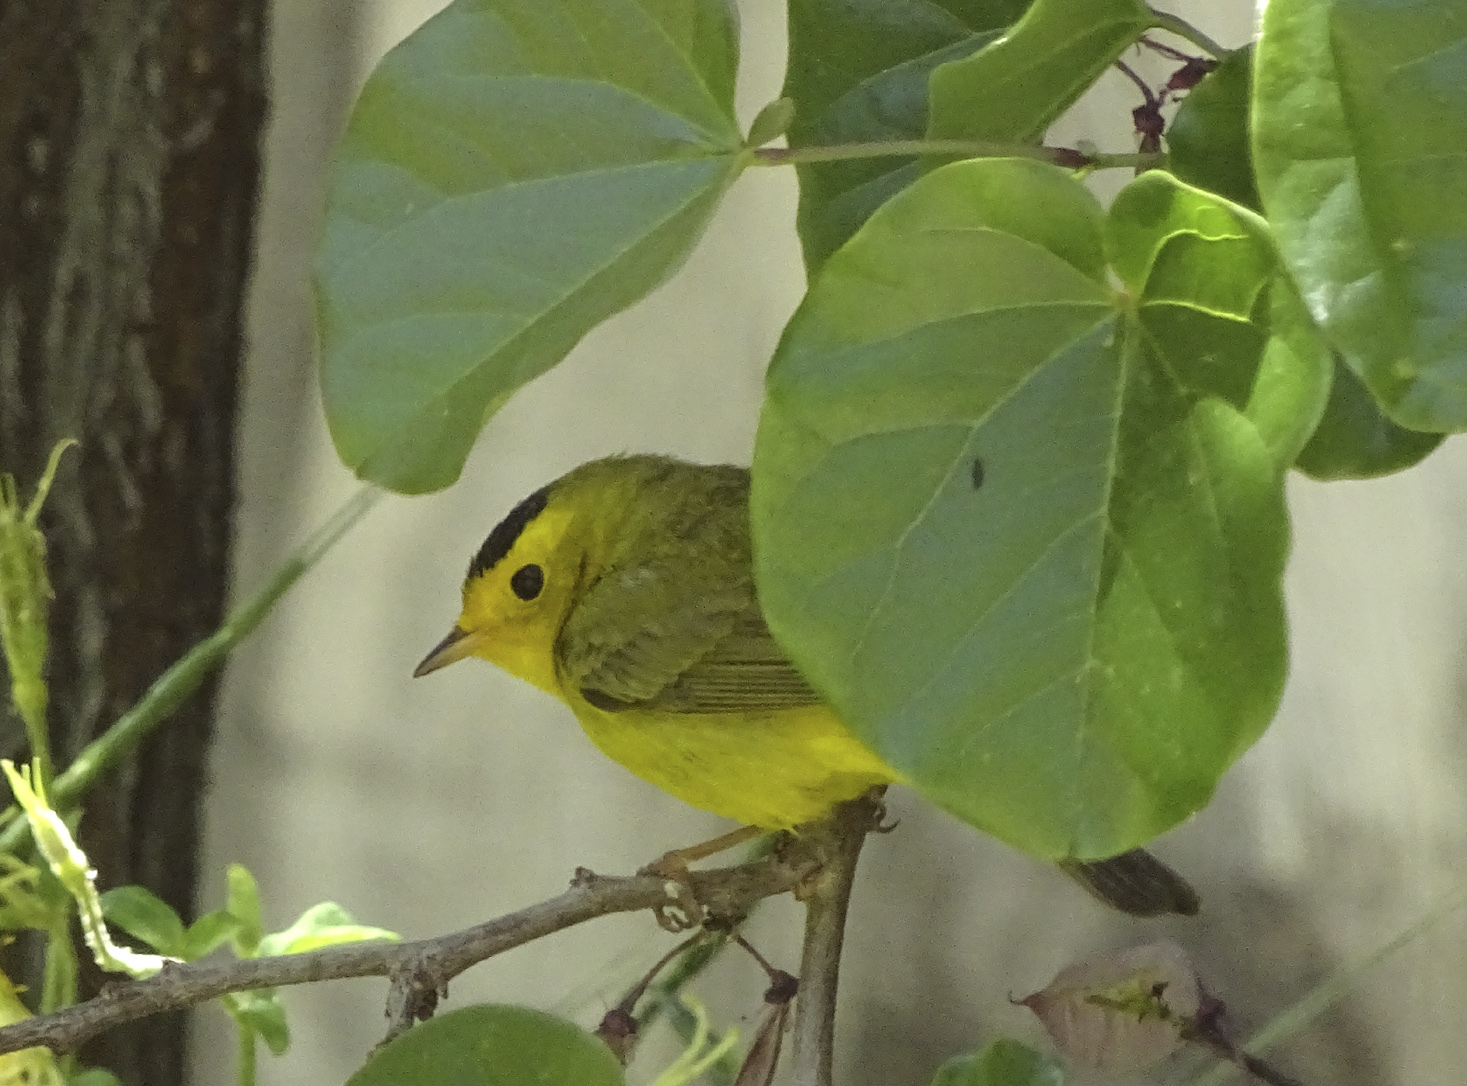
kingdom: Animalia
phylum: Chordata
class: Aves
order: Passeriformes
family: Parulidae
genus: Cardellina
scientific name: Cardellina pusilla
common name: Wilson's warbler
